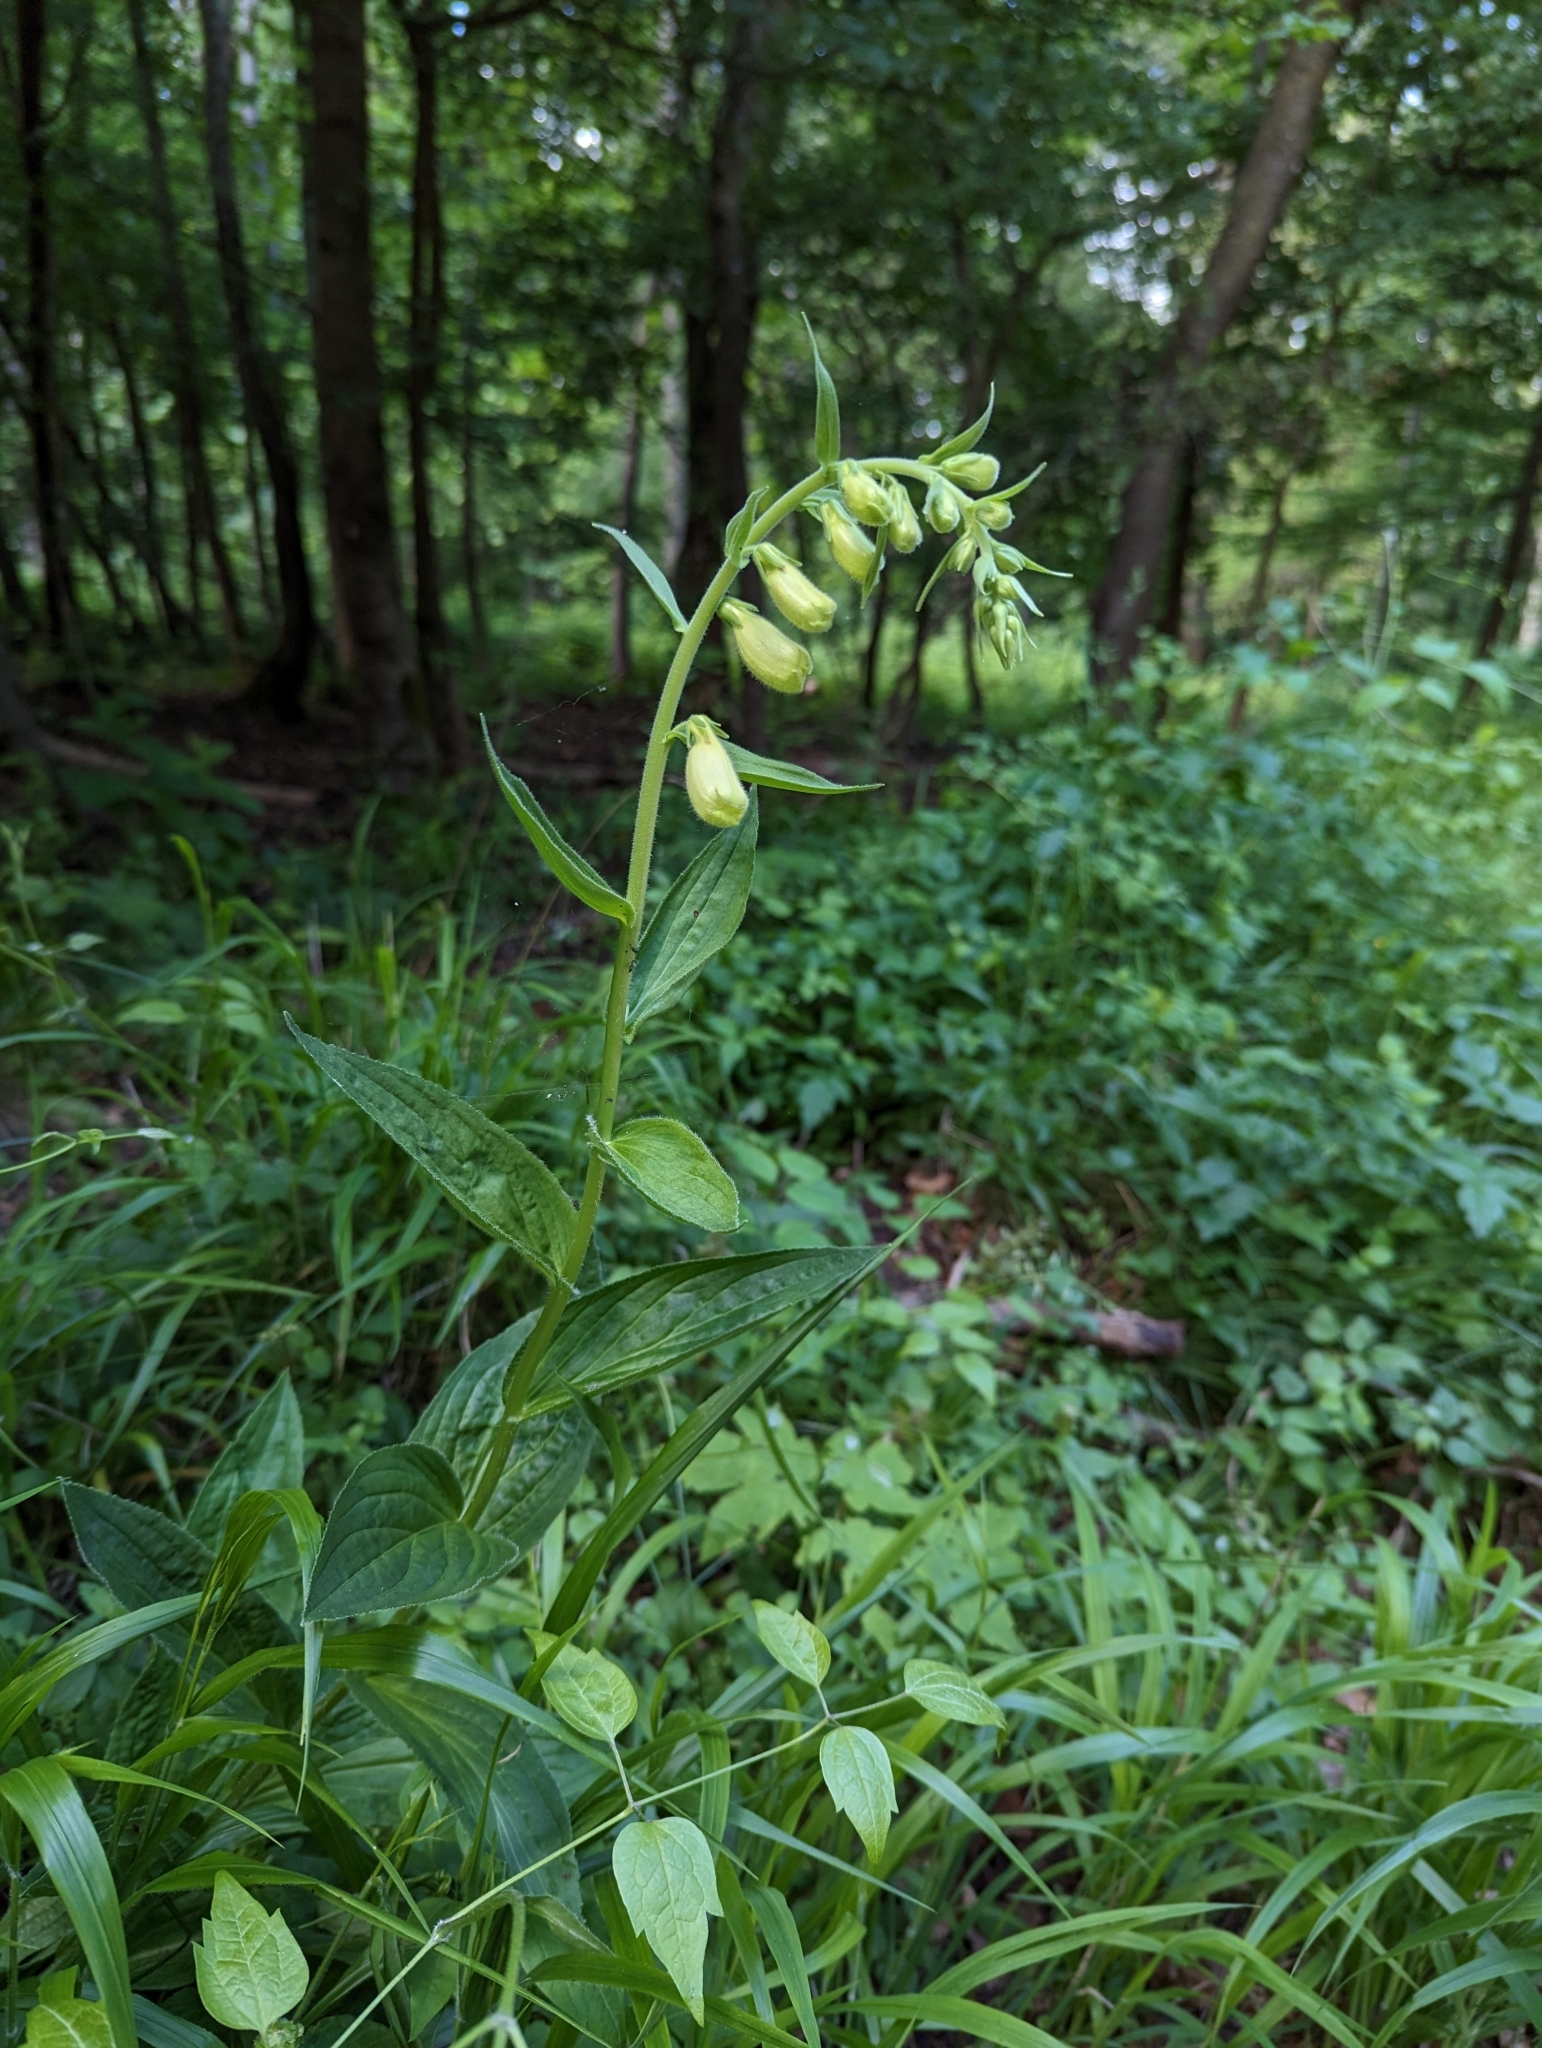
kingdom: Plantae
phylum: Tracheophyta
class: Magnoliopsida
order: Lamiales
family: Plantaginaceae
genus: Digitalis
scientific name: Digitalis grandiflora
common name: Yellow foxglove
